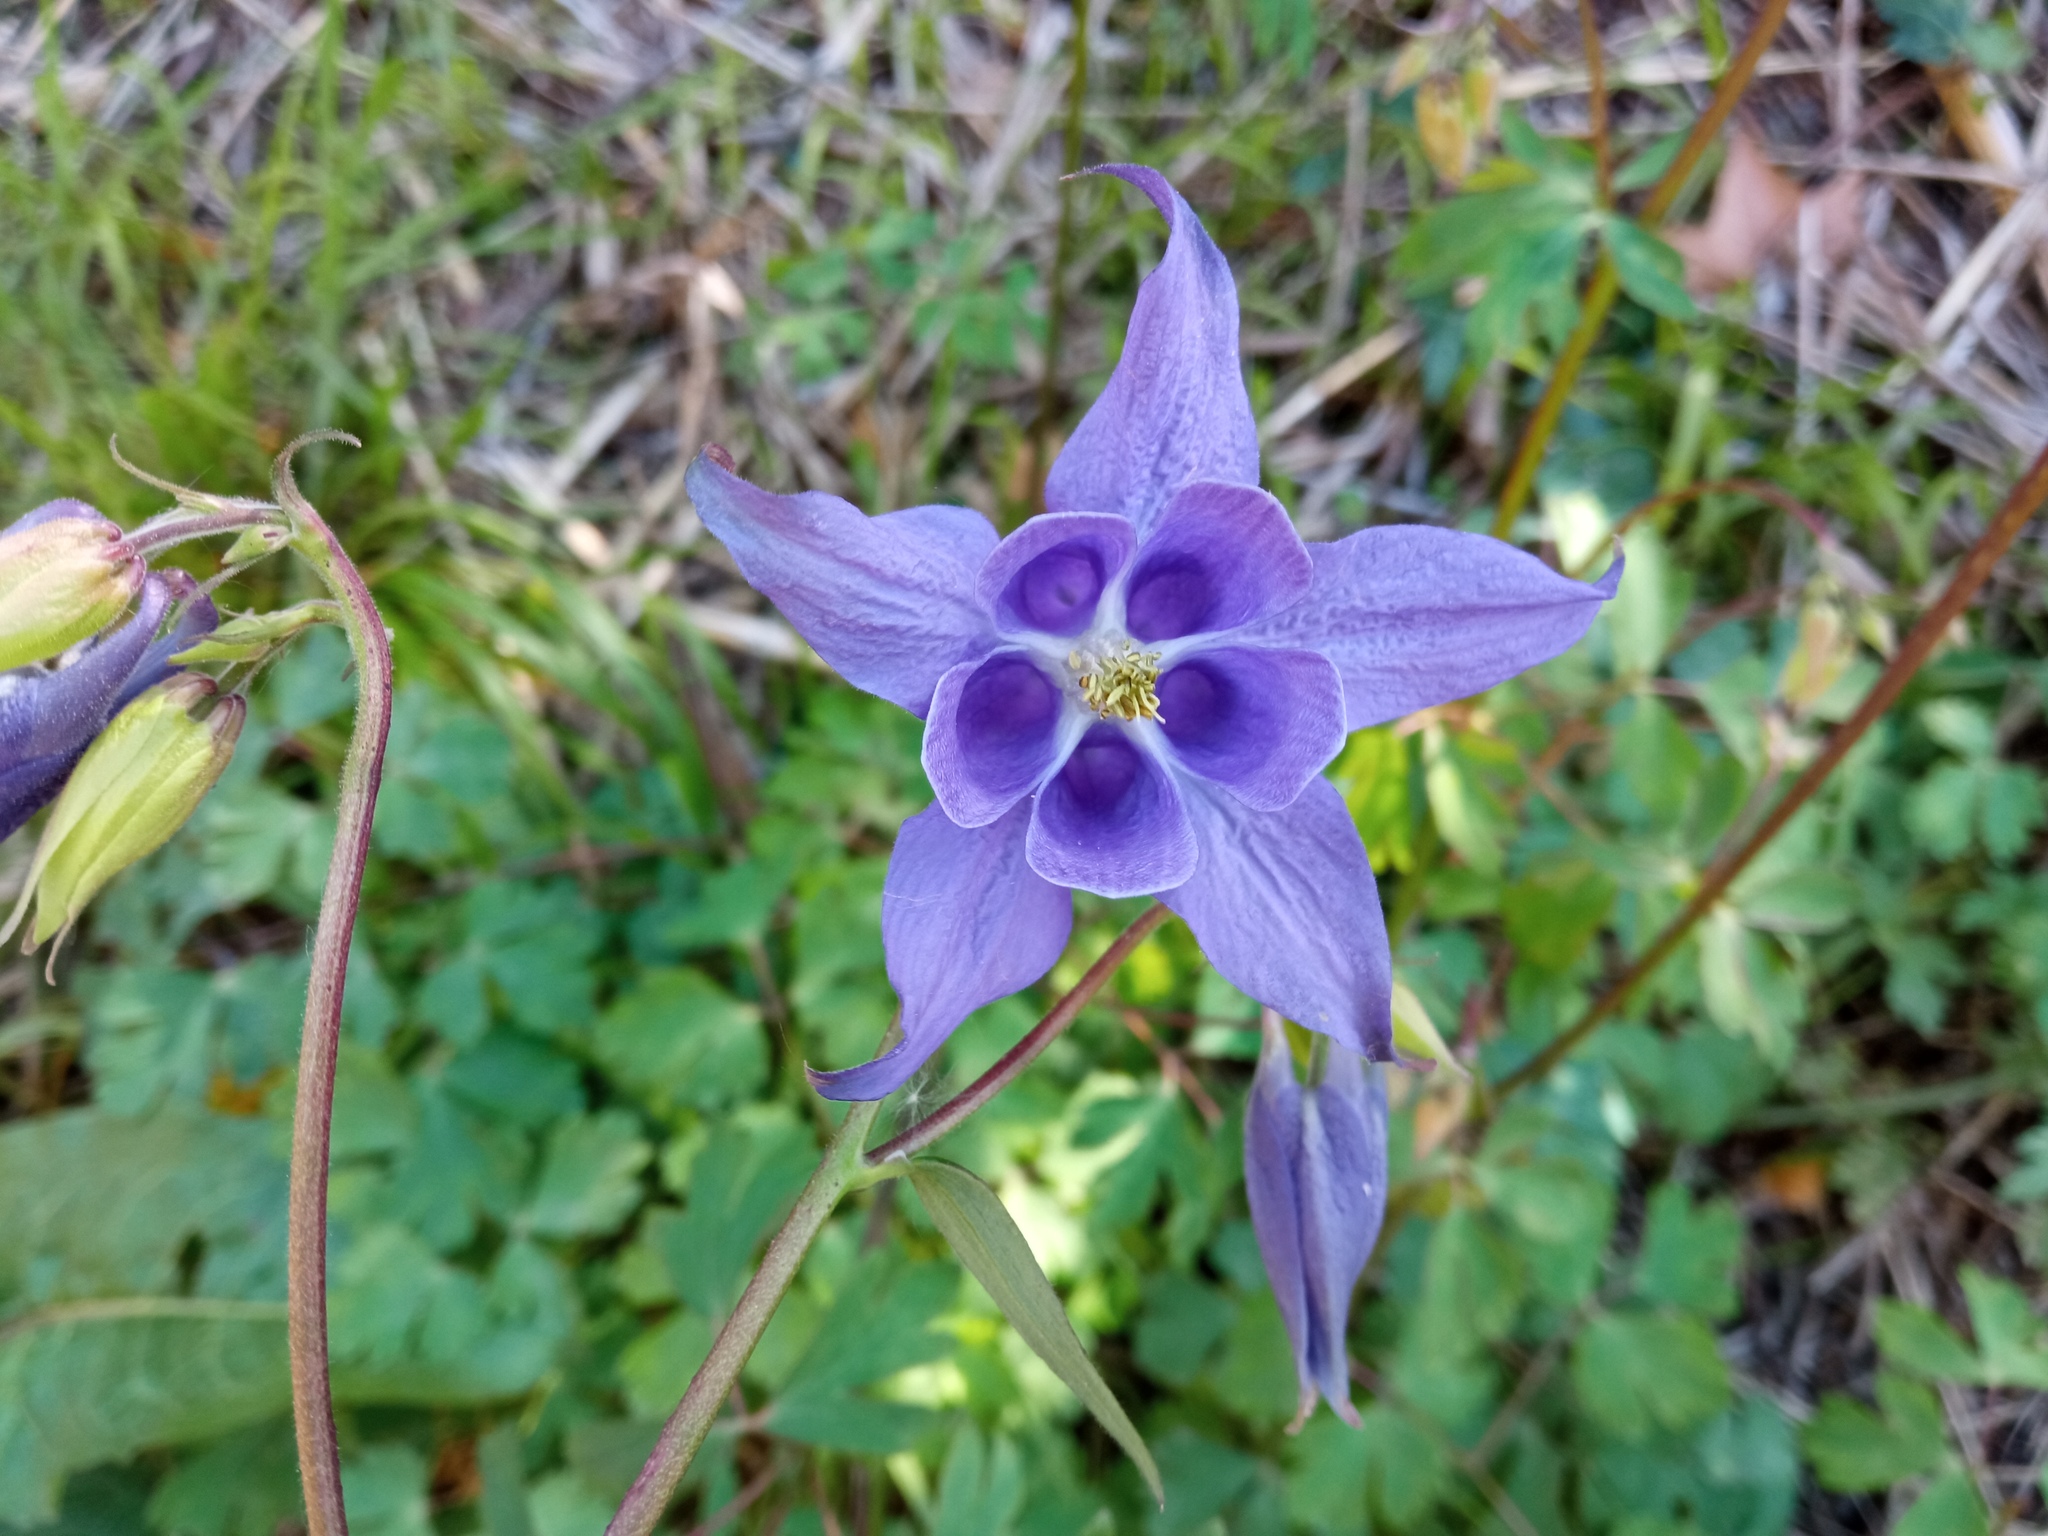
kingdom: Plantae
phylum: Tracheophyta
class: Magnoliopsida
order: Ranunculales
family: Ranunculaceae
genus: Aquilegia
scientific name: Aquilegia vulgaris
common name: Columbine
